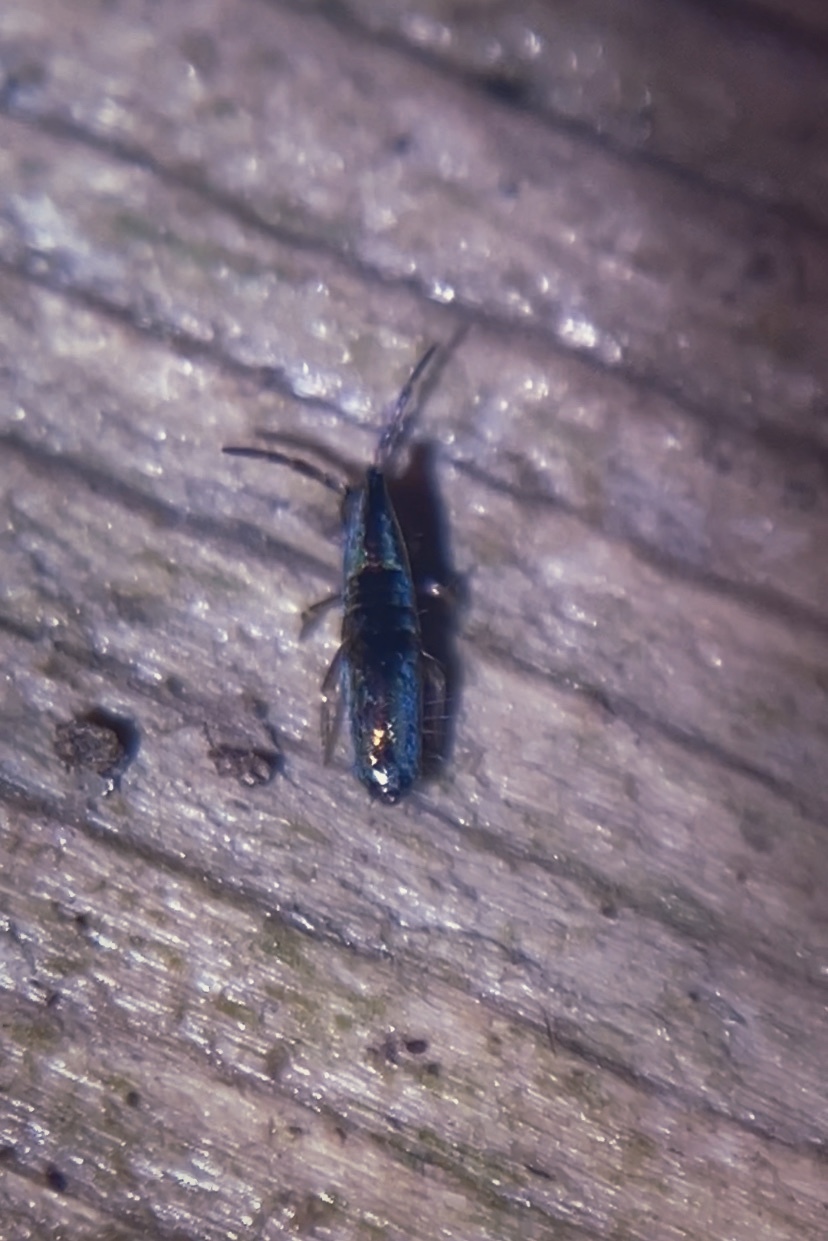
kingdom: Animalia
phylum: Arthropoda
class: Collembola
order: Entomobryomorpha
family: Entomobryidae
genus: Lepidocyrtus
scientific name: Lepidocyrtus paradoxus
